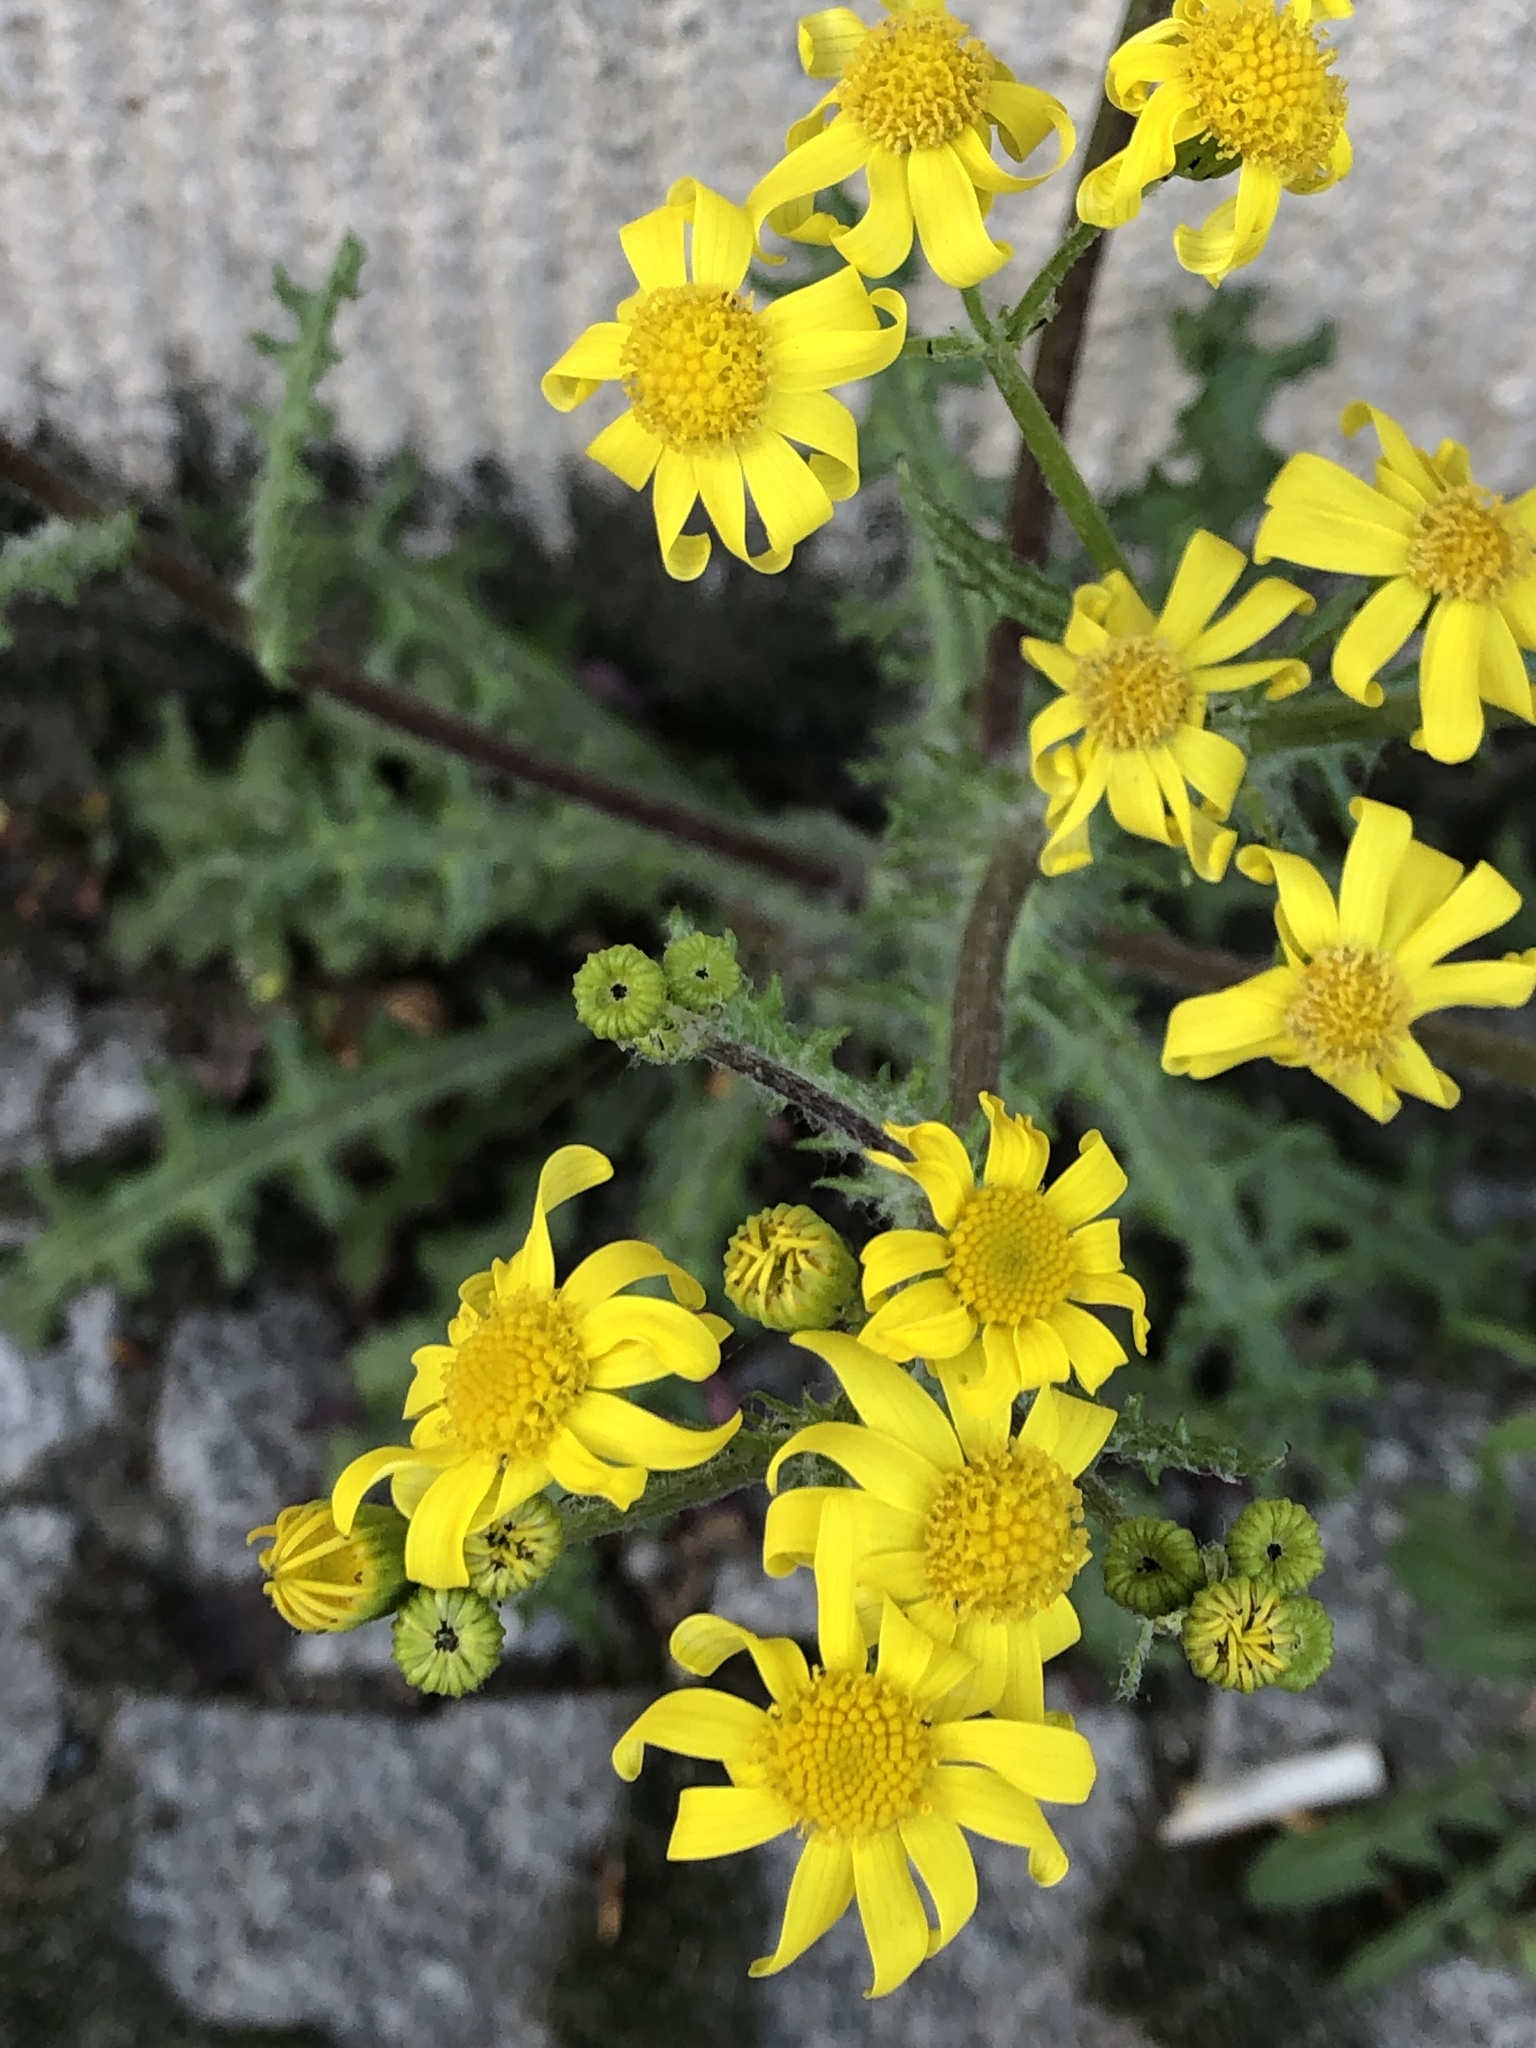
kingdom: Plantae
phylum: Tracheophyta
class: Magnoliopsida
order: Asterales
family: Asteraceae
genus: Senecio
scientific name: Senecio vernalis
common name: Eastern groundsel
